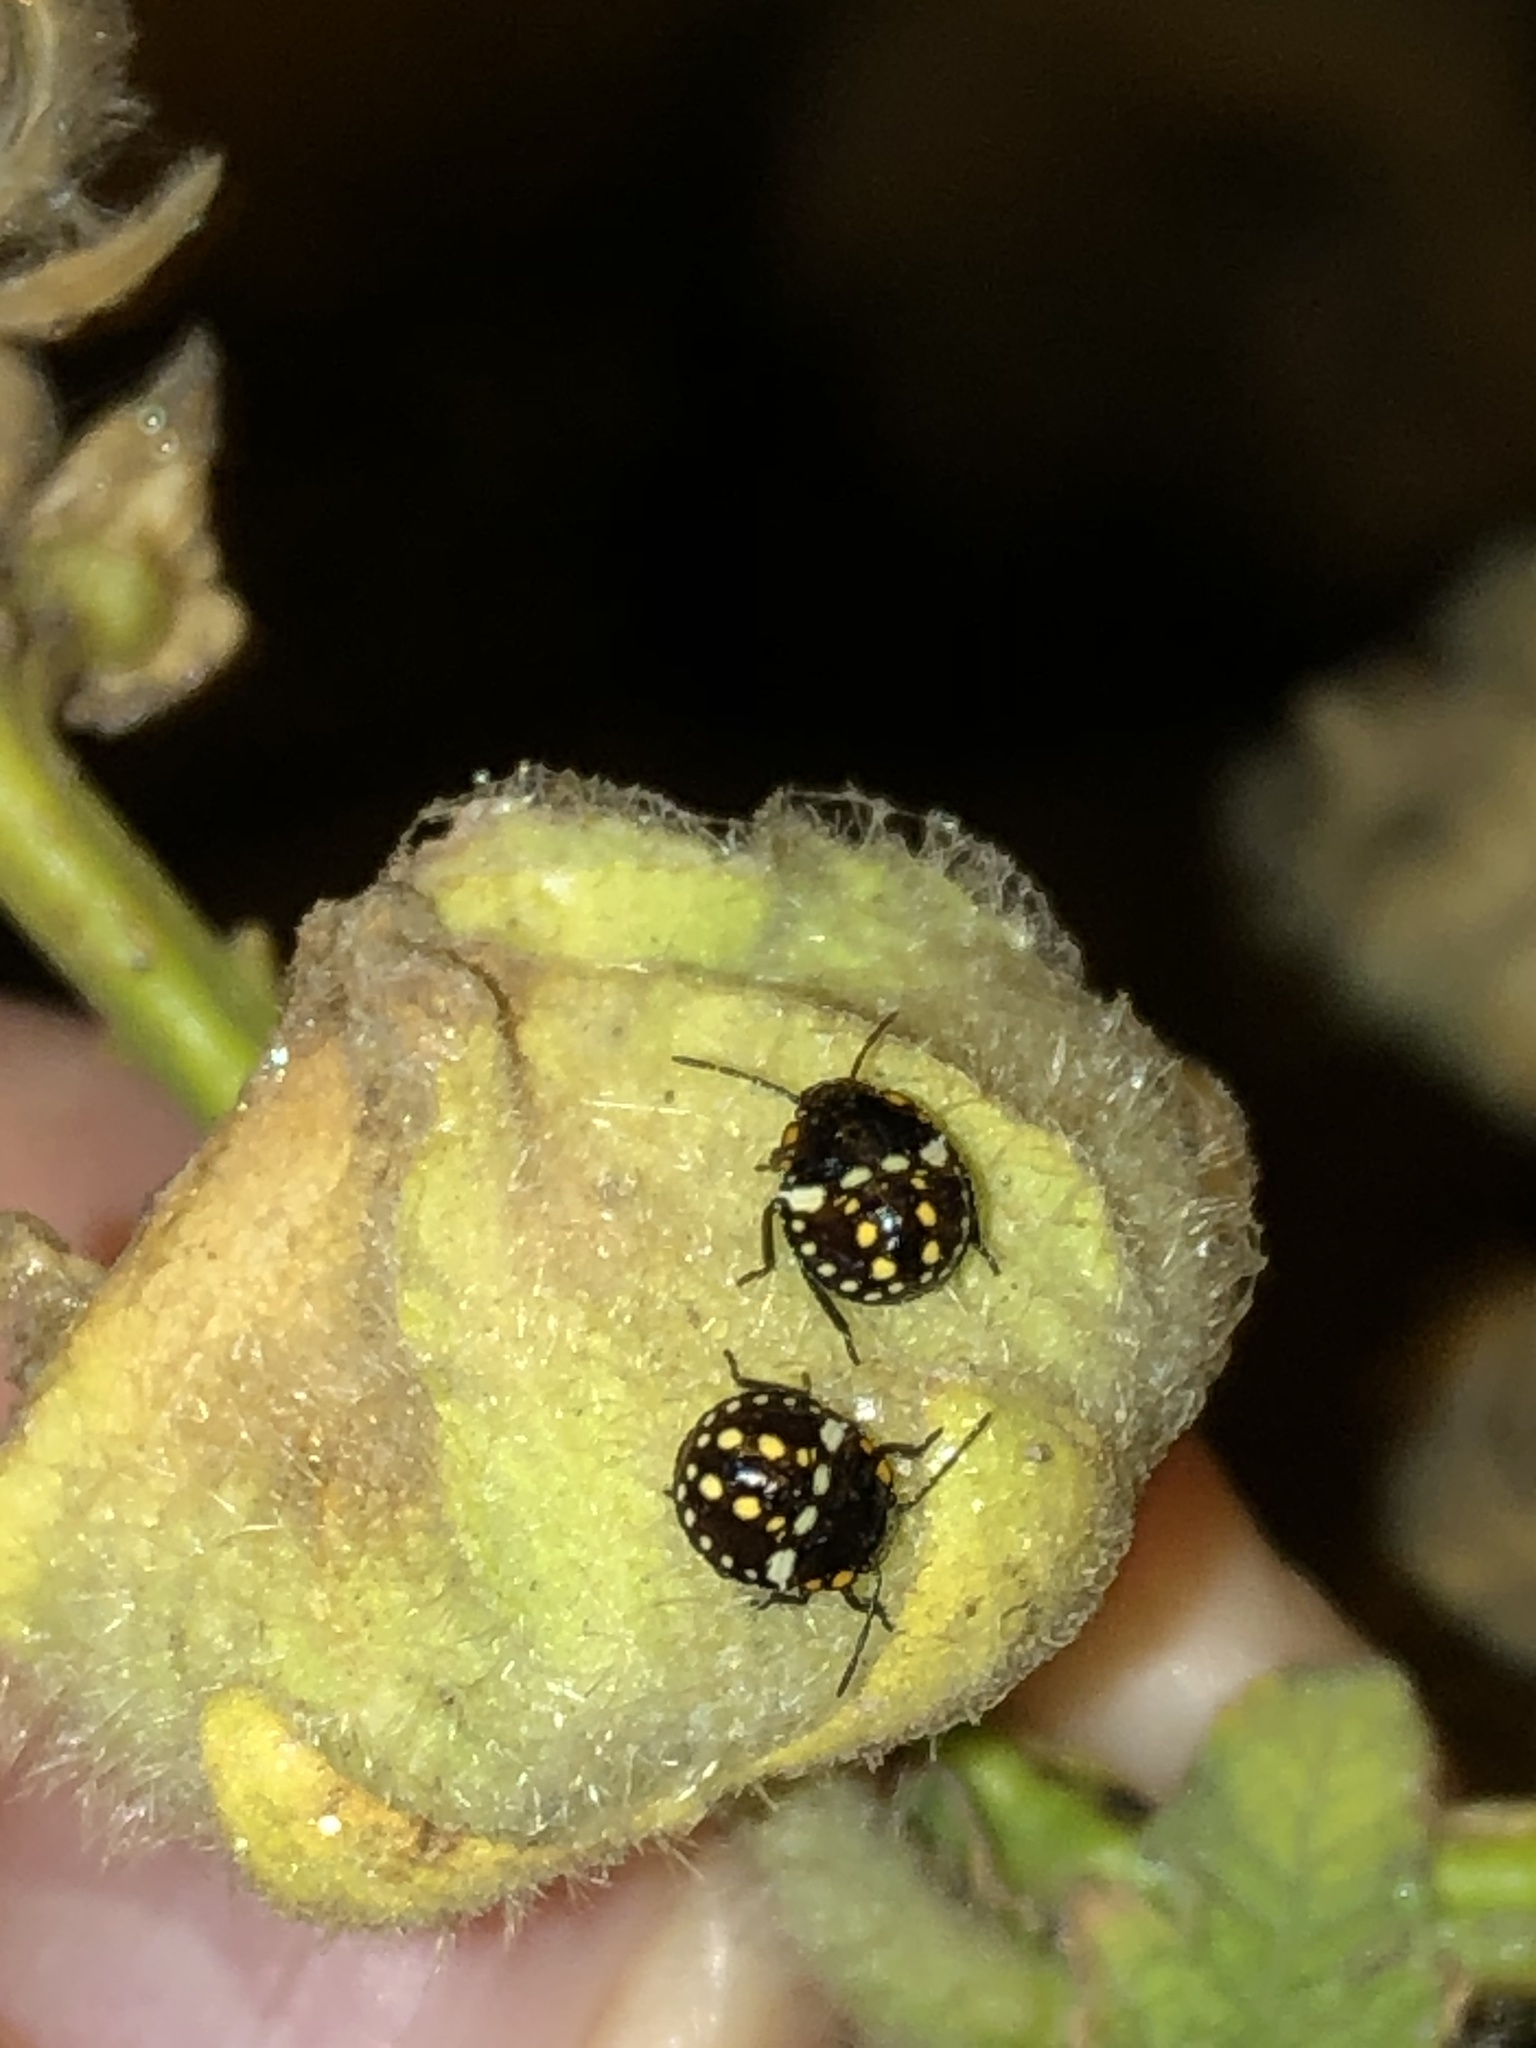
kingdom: Animalia
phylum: Arthropoda
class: Insecta
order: Hemiptera
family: Pentatomidae
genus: Nezara
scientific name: Nezara viridula
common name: Southern green stink bug
